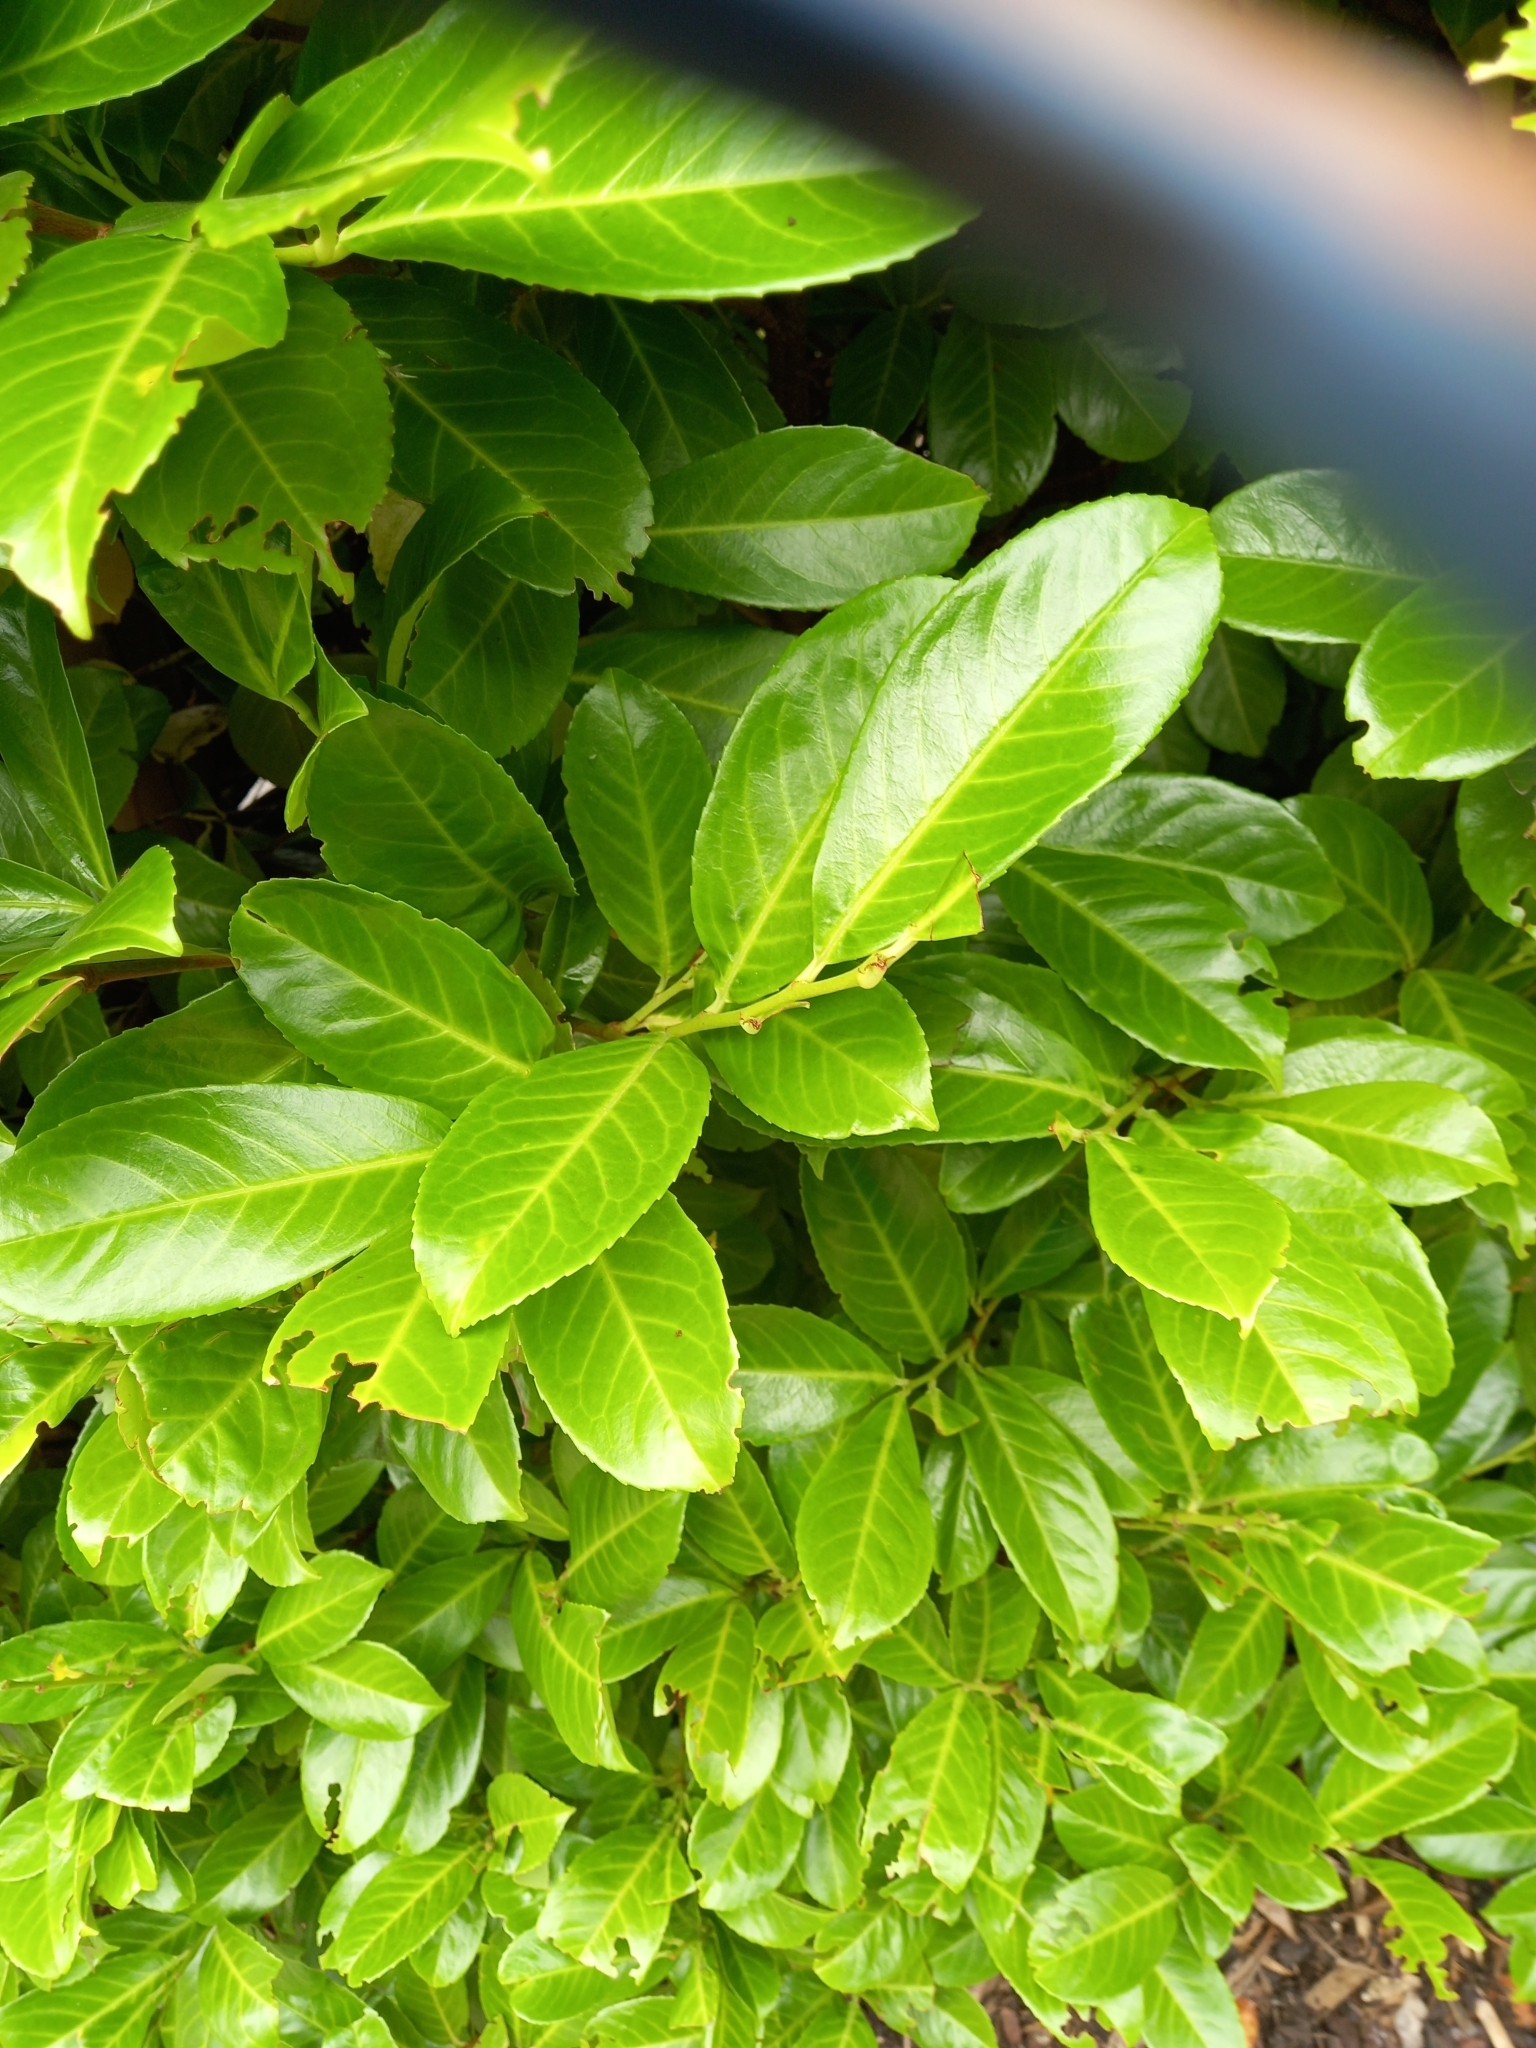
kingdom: Plantae
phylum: Tracheophyta
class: Magnoliopsida
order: Rosales
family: Rosaceae
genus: Prunus
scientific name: Prunus laurocerasus
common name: Cherry laurel
